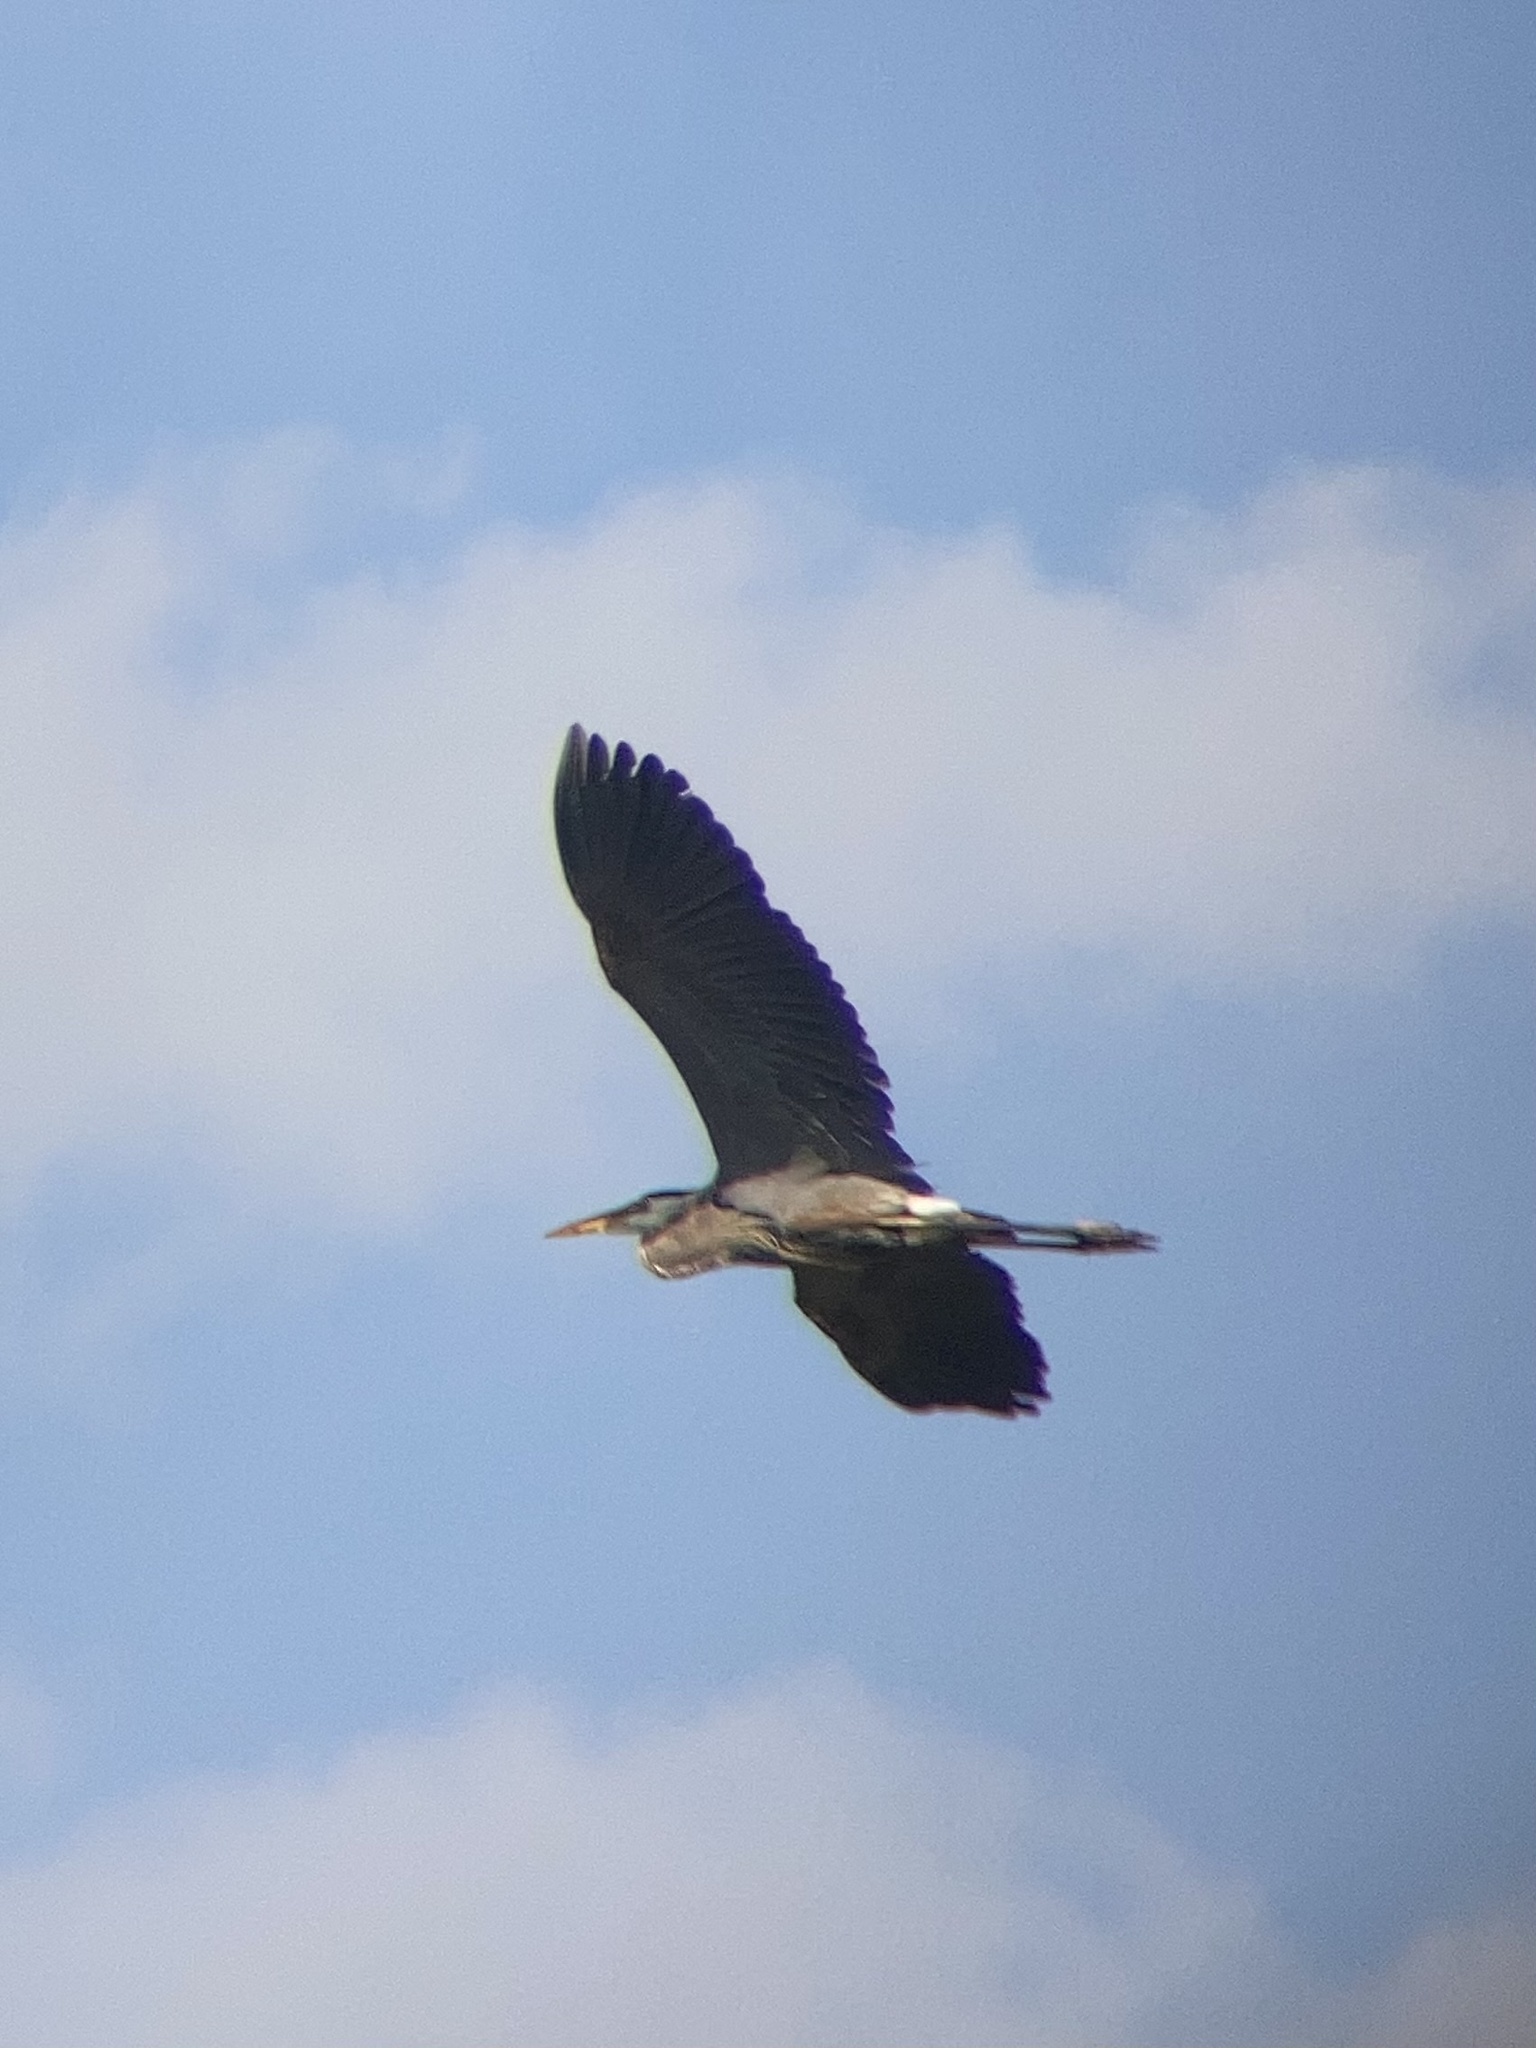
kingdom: Animalia
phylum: Chordata
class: Aves
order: Pelecaniformes
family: Ardeidae
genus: Ardea
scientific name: Ardea herodias
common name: Great blue heron
